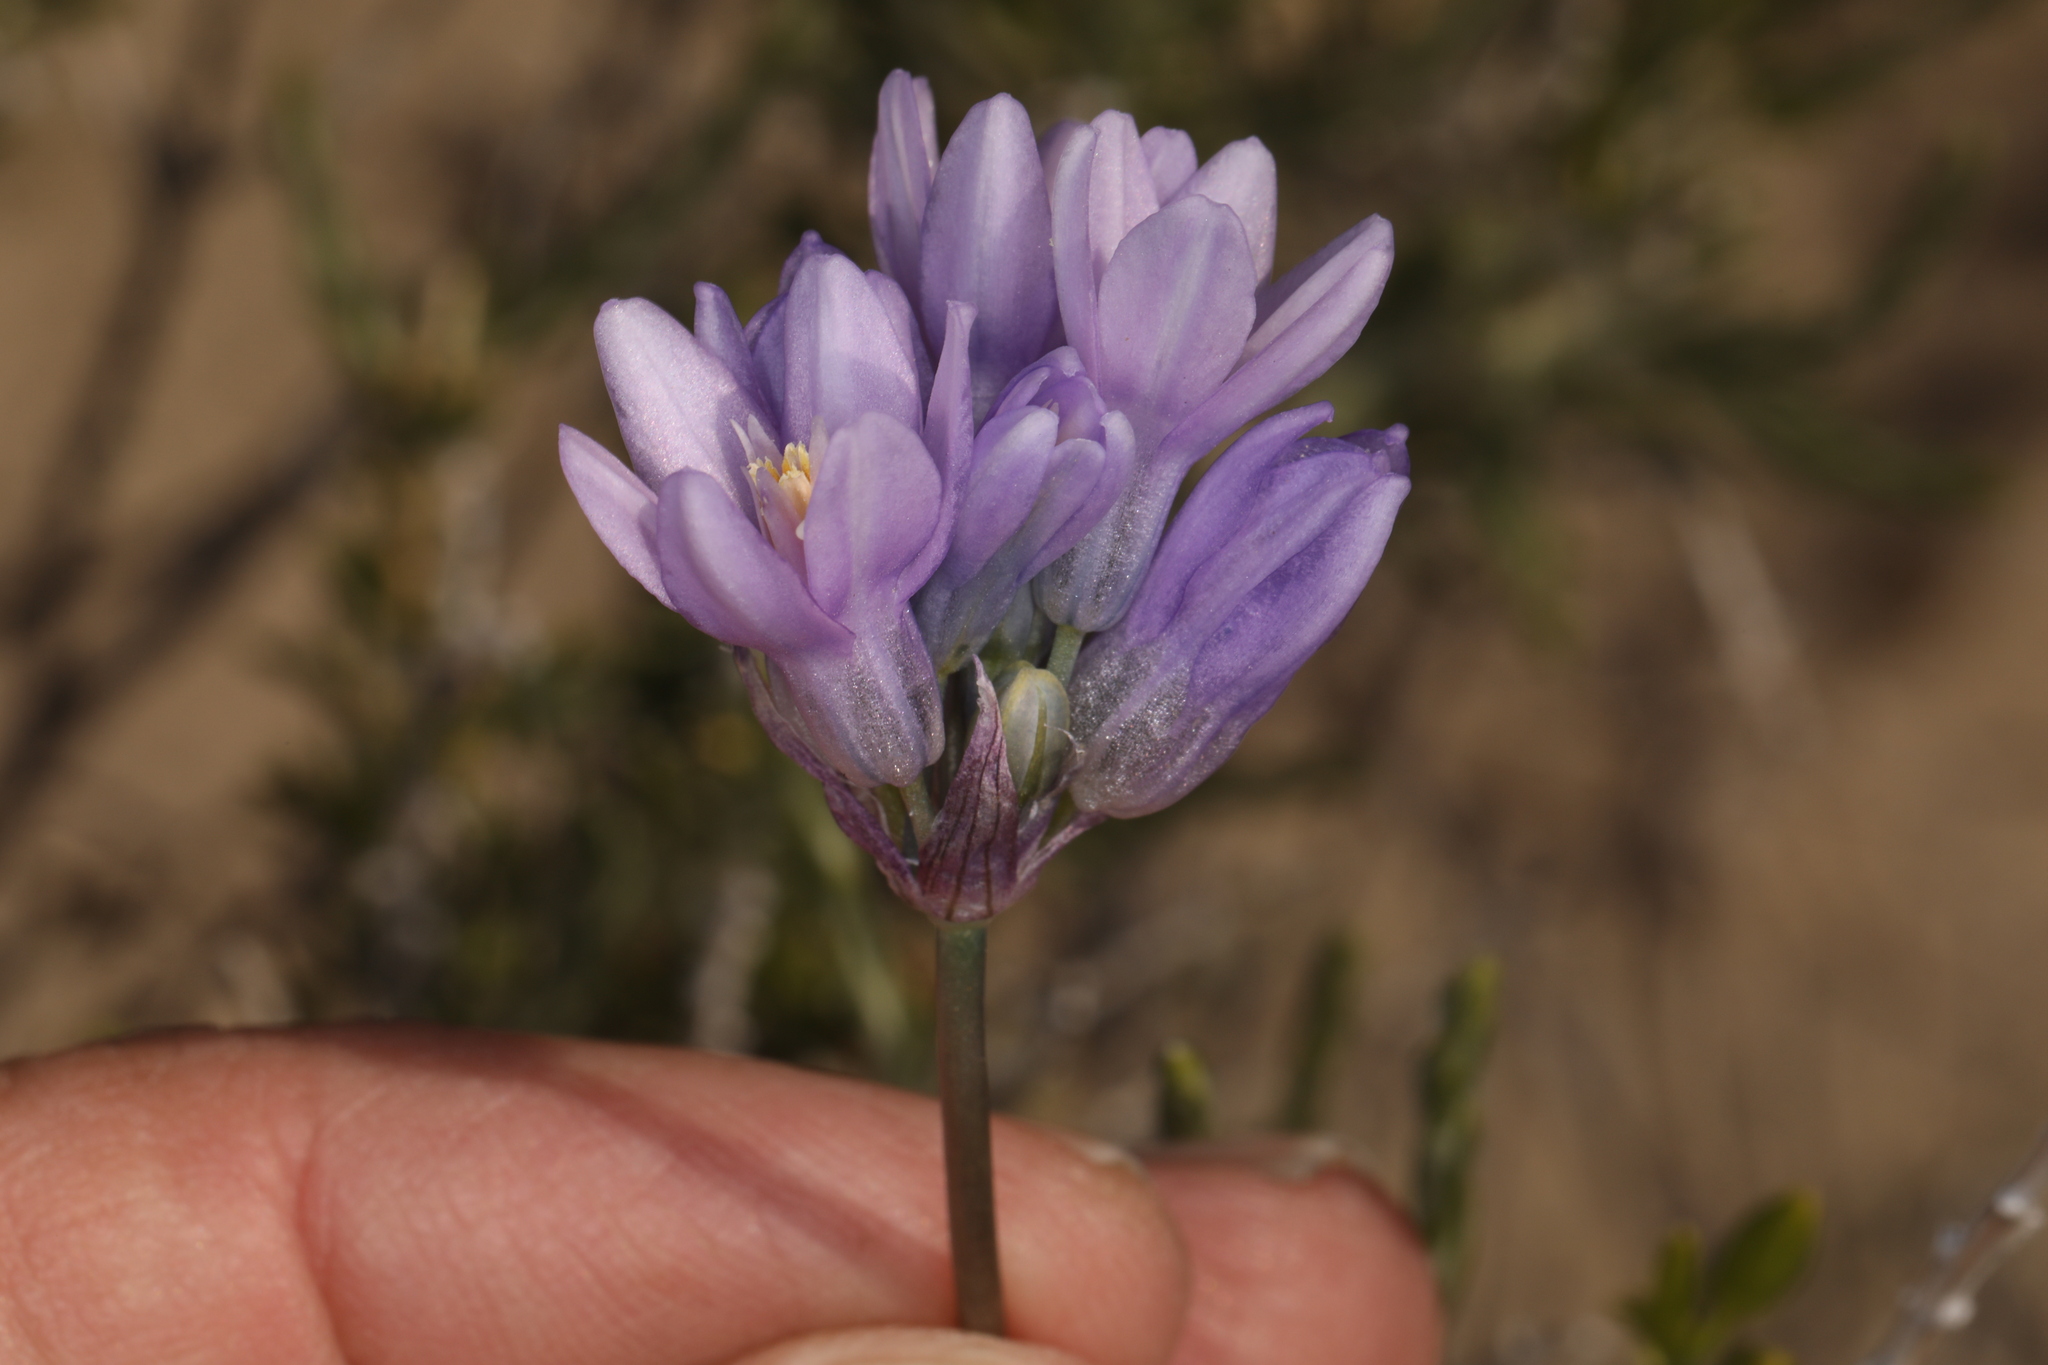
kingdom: Plantae
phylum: Tracheophyta
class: Liliopsida
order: Asparagales
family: Asparagaceae
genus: Dipterostemon
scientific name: Dipterostemon capitatus
